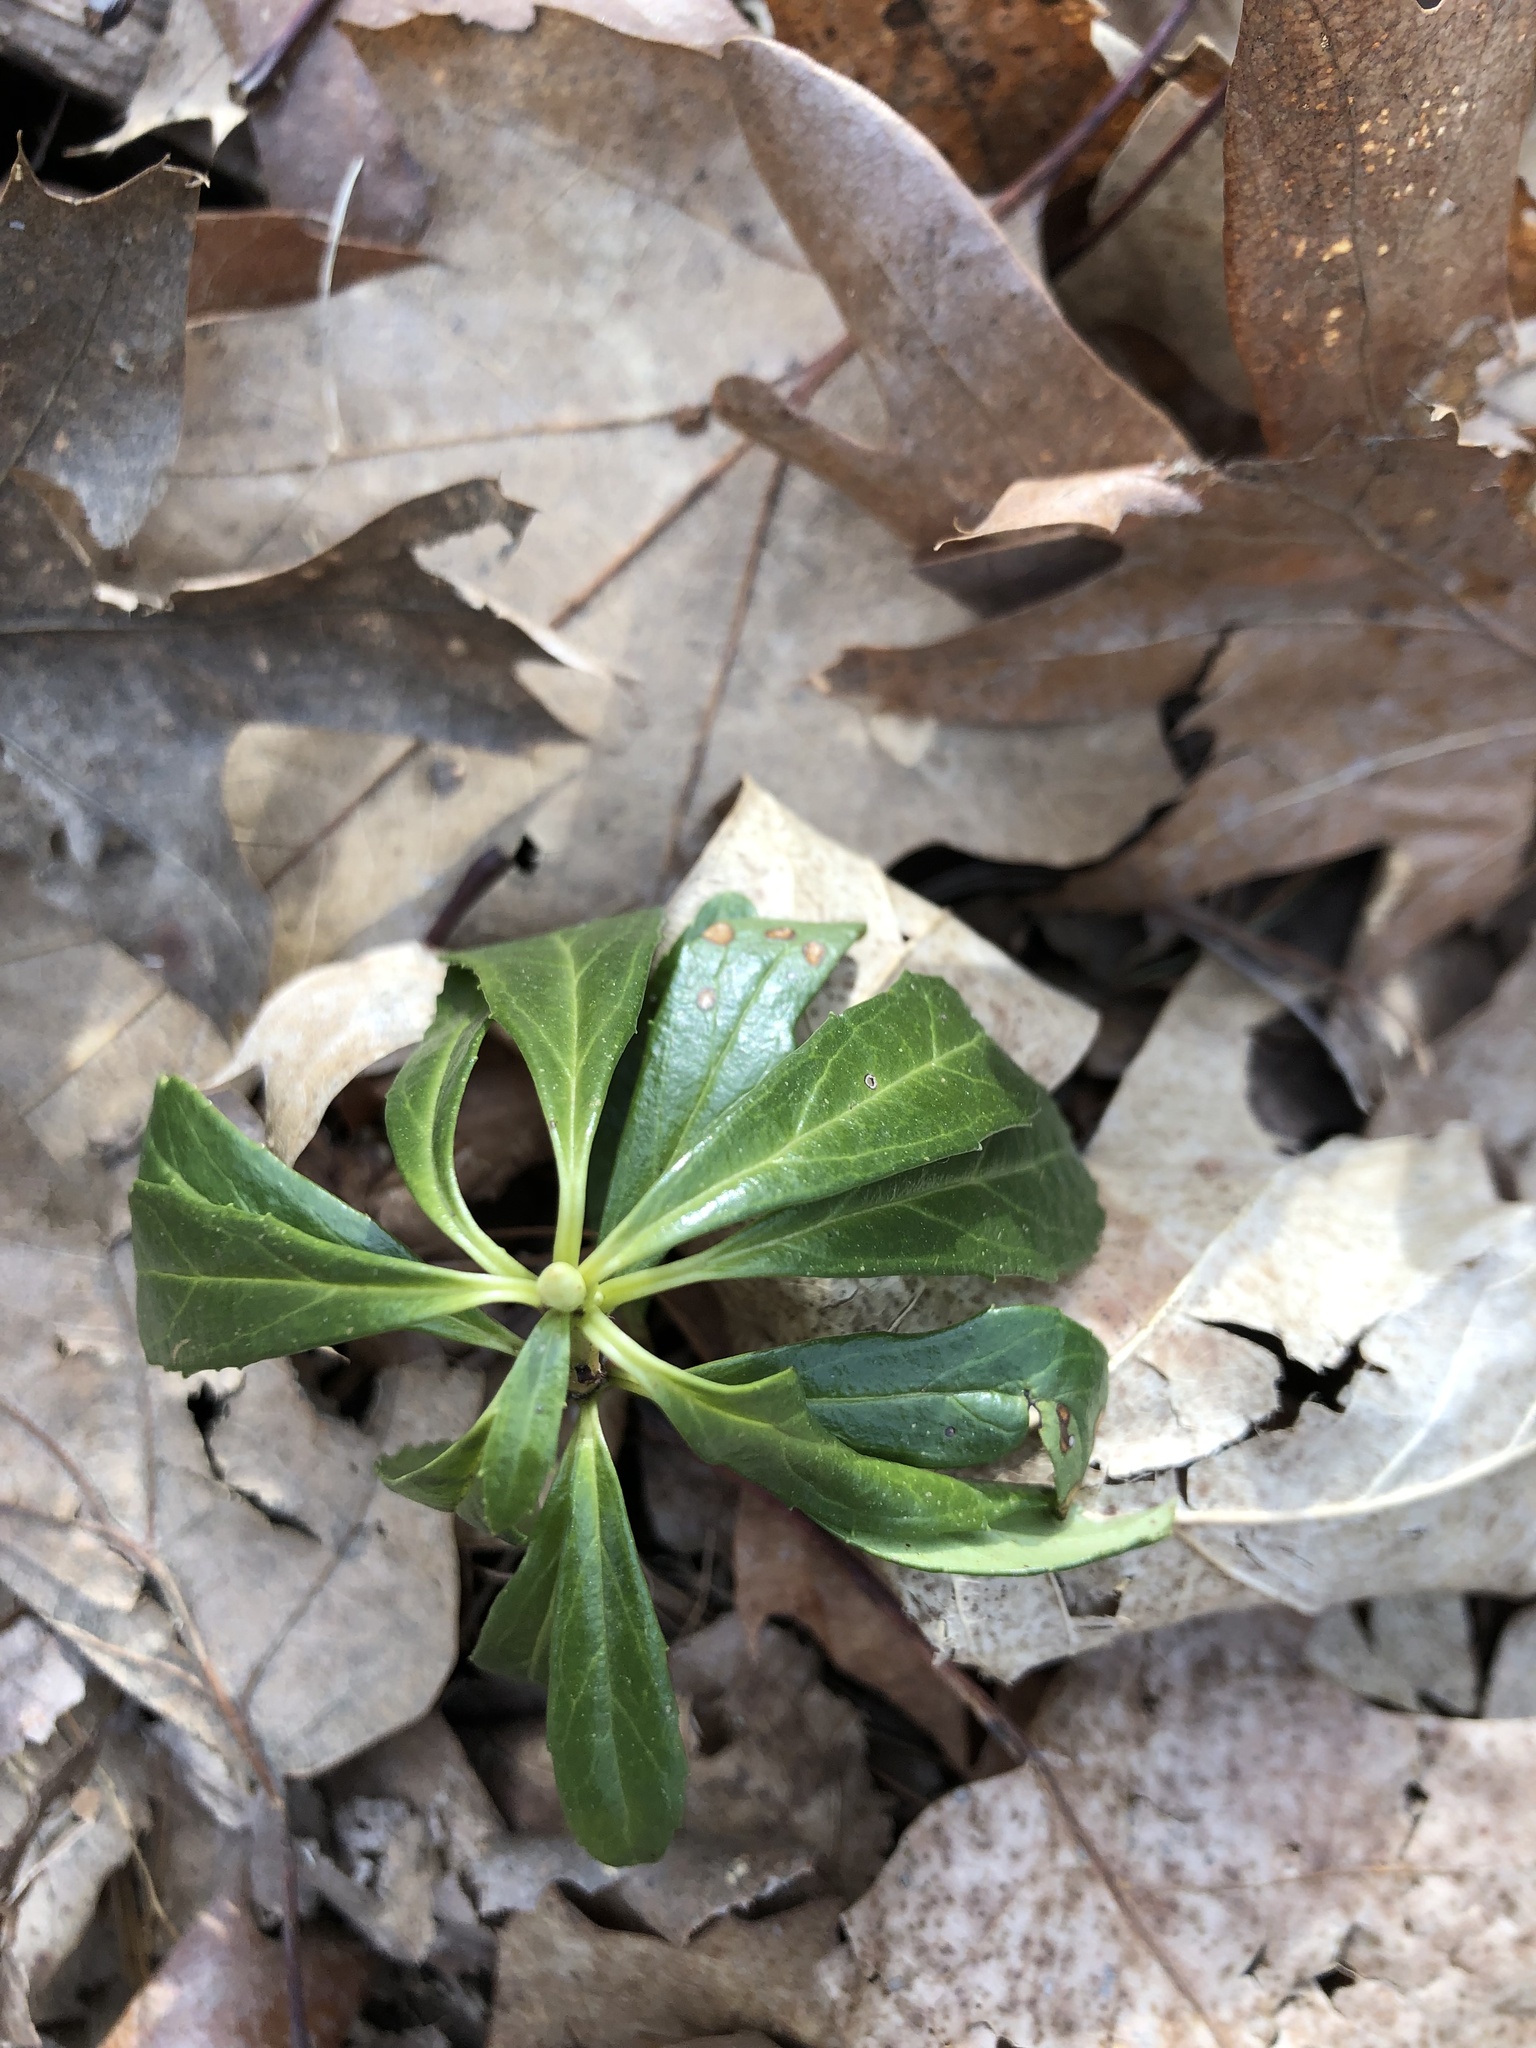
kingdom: Plantae
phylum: Tracheophyta
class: Magnoliopsida
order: Ericales
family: Ericaceae
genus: Chimaphila
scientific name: Chimaphila umbellata
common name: Pipsissewa
